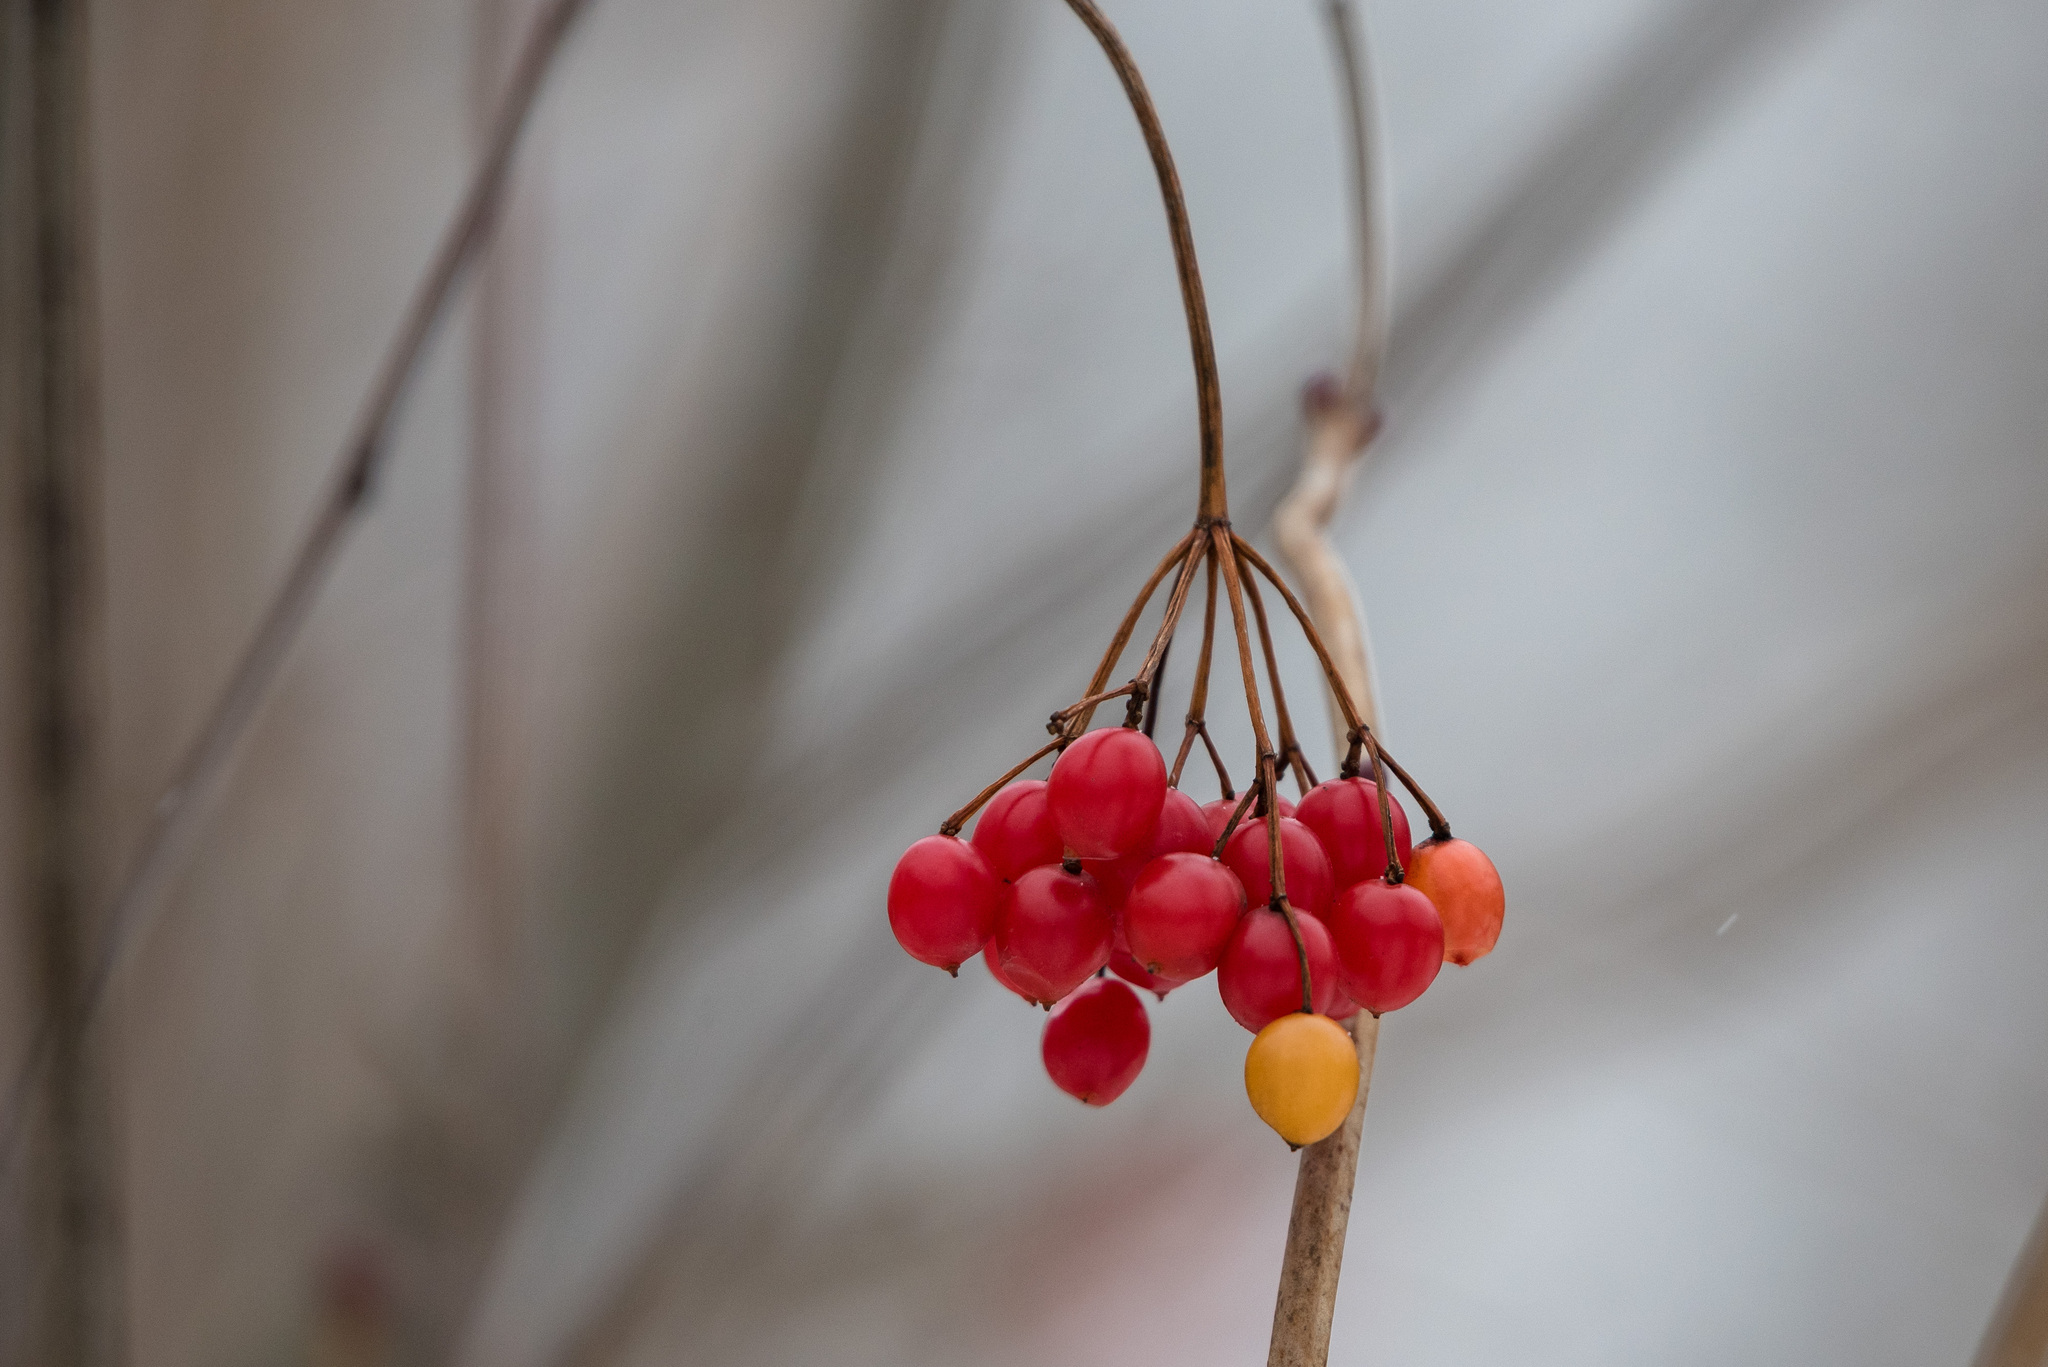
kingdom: Plantae
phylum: Tracheophyta
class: Magnoliopsida
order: Dipsacales
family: Viburnaceae
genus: Viburnum
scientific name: Viburnum opulus
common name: Guelder-rose
